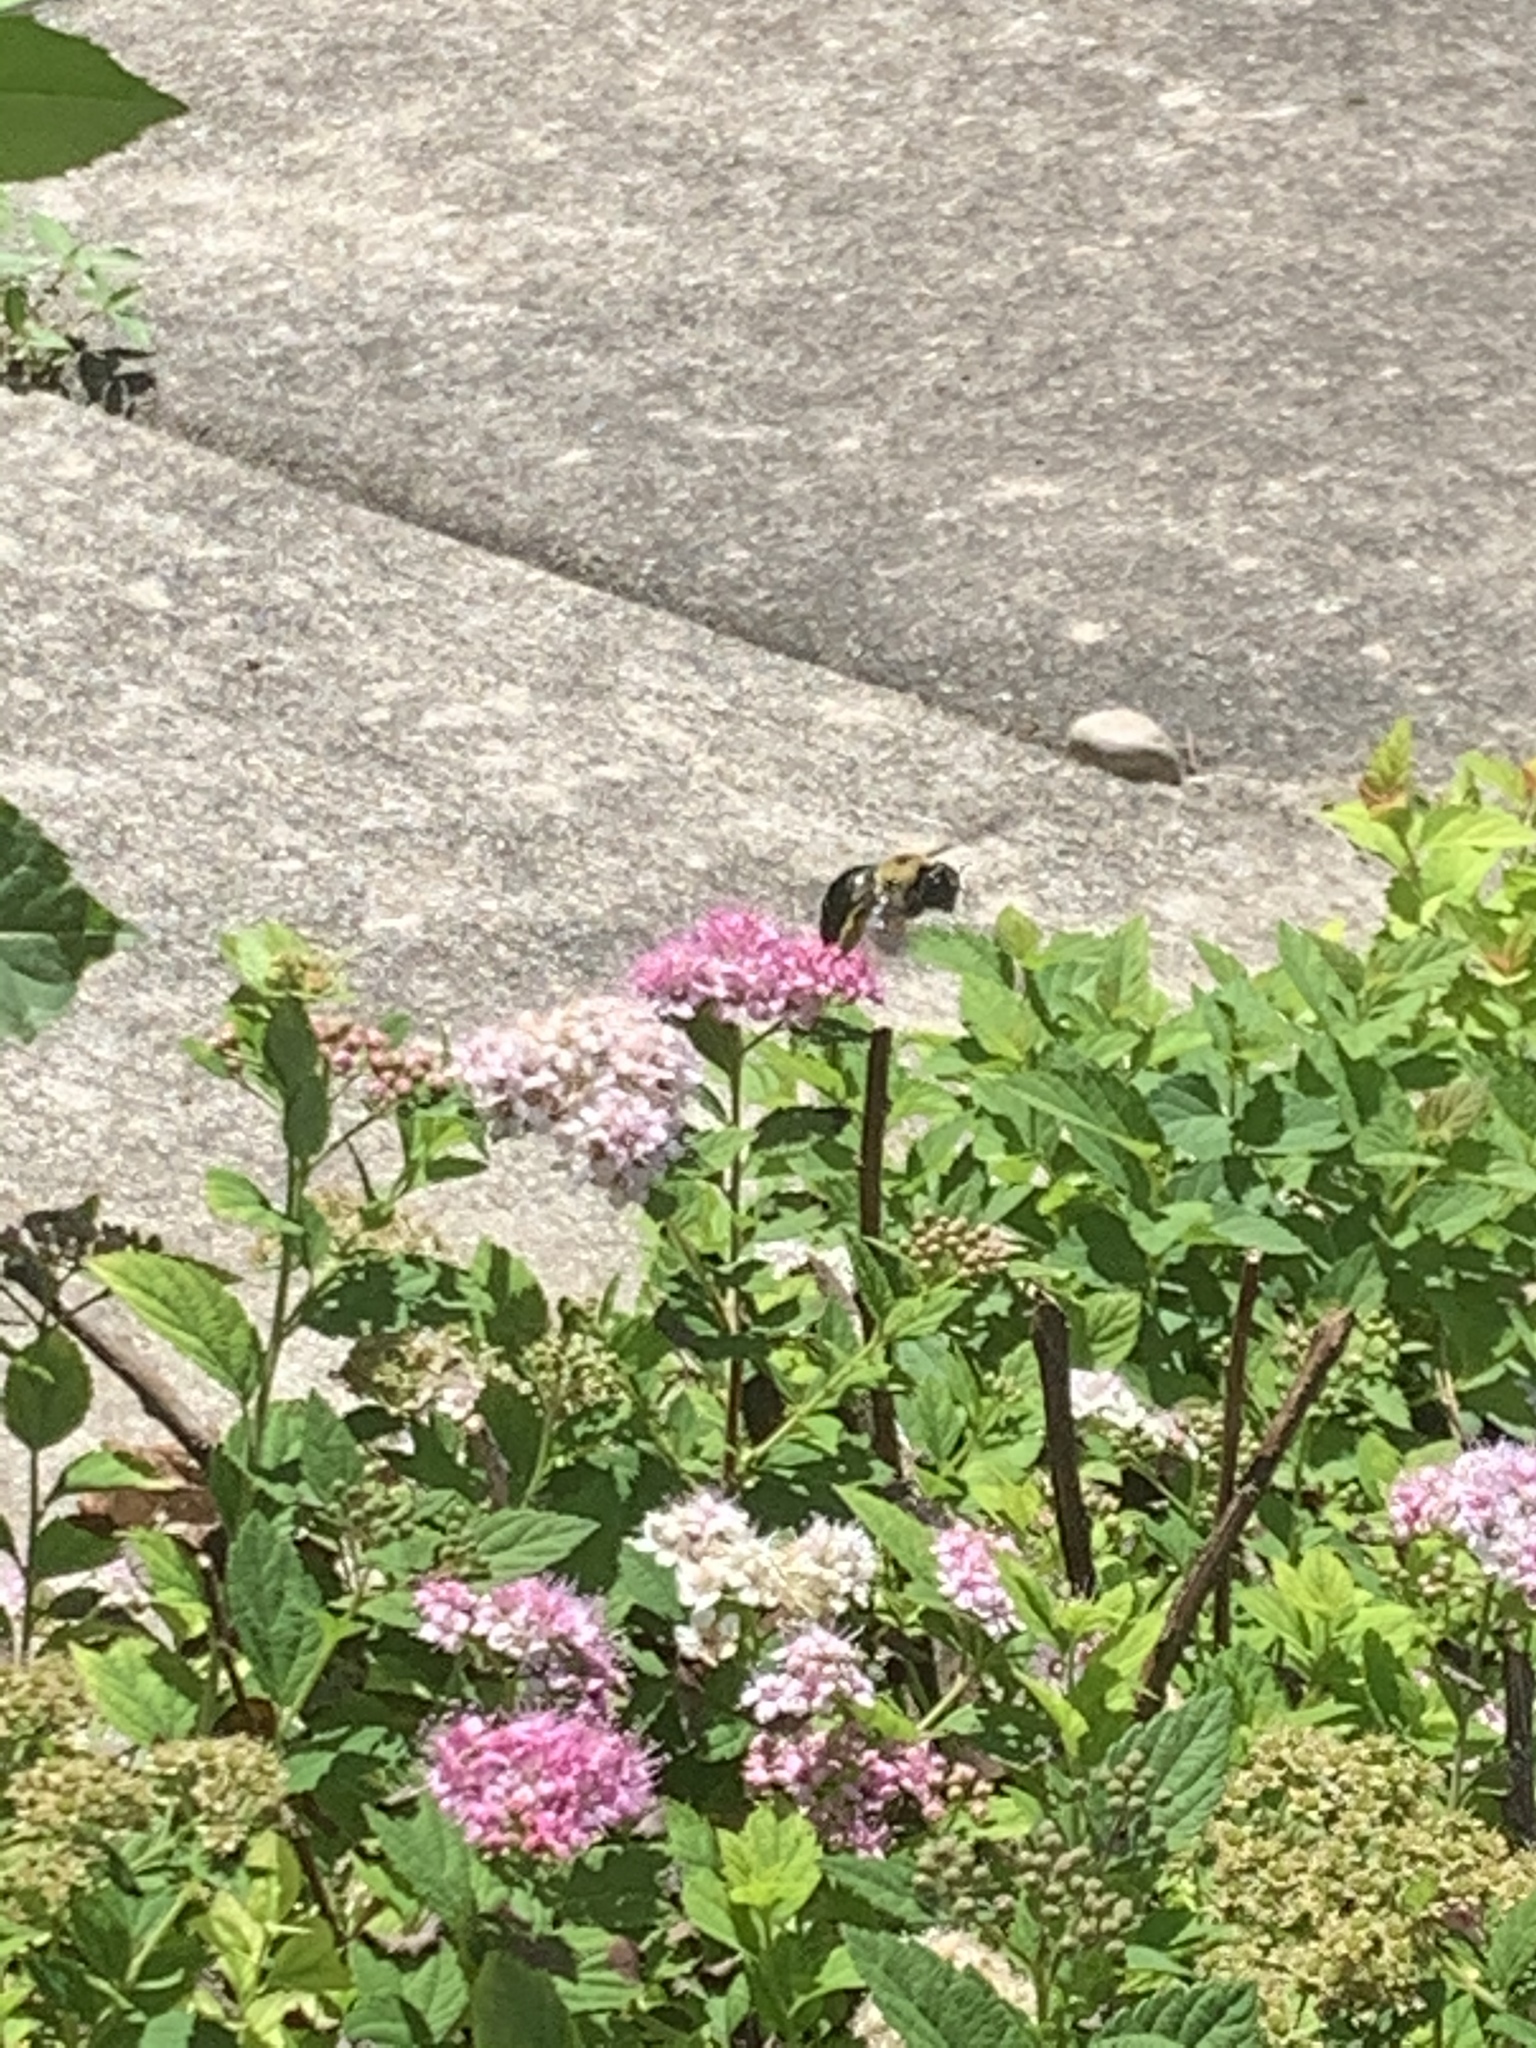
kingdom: Animalia
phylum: Arthropoda
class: Insecta
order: Hymenoptera
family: Apidae
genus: Xylocopa
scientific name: Xylocopa virginica
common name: Carpenter bee
